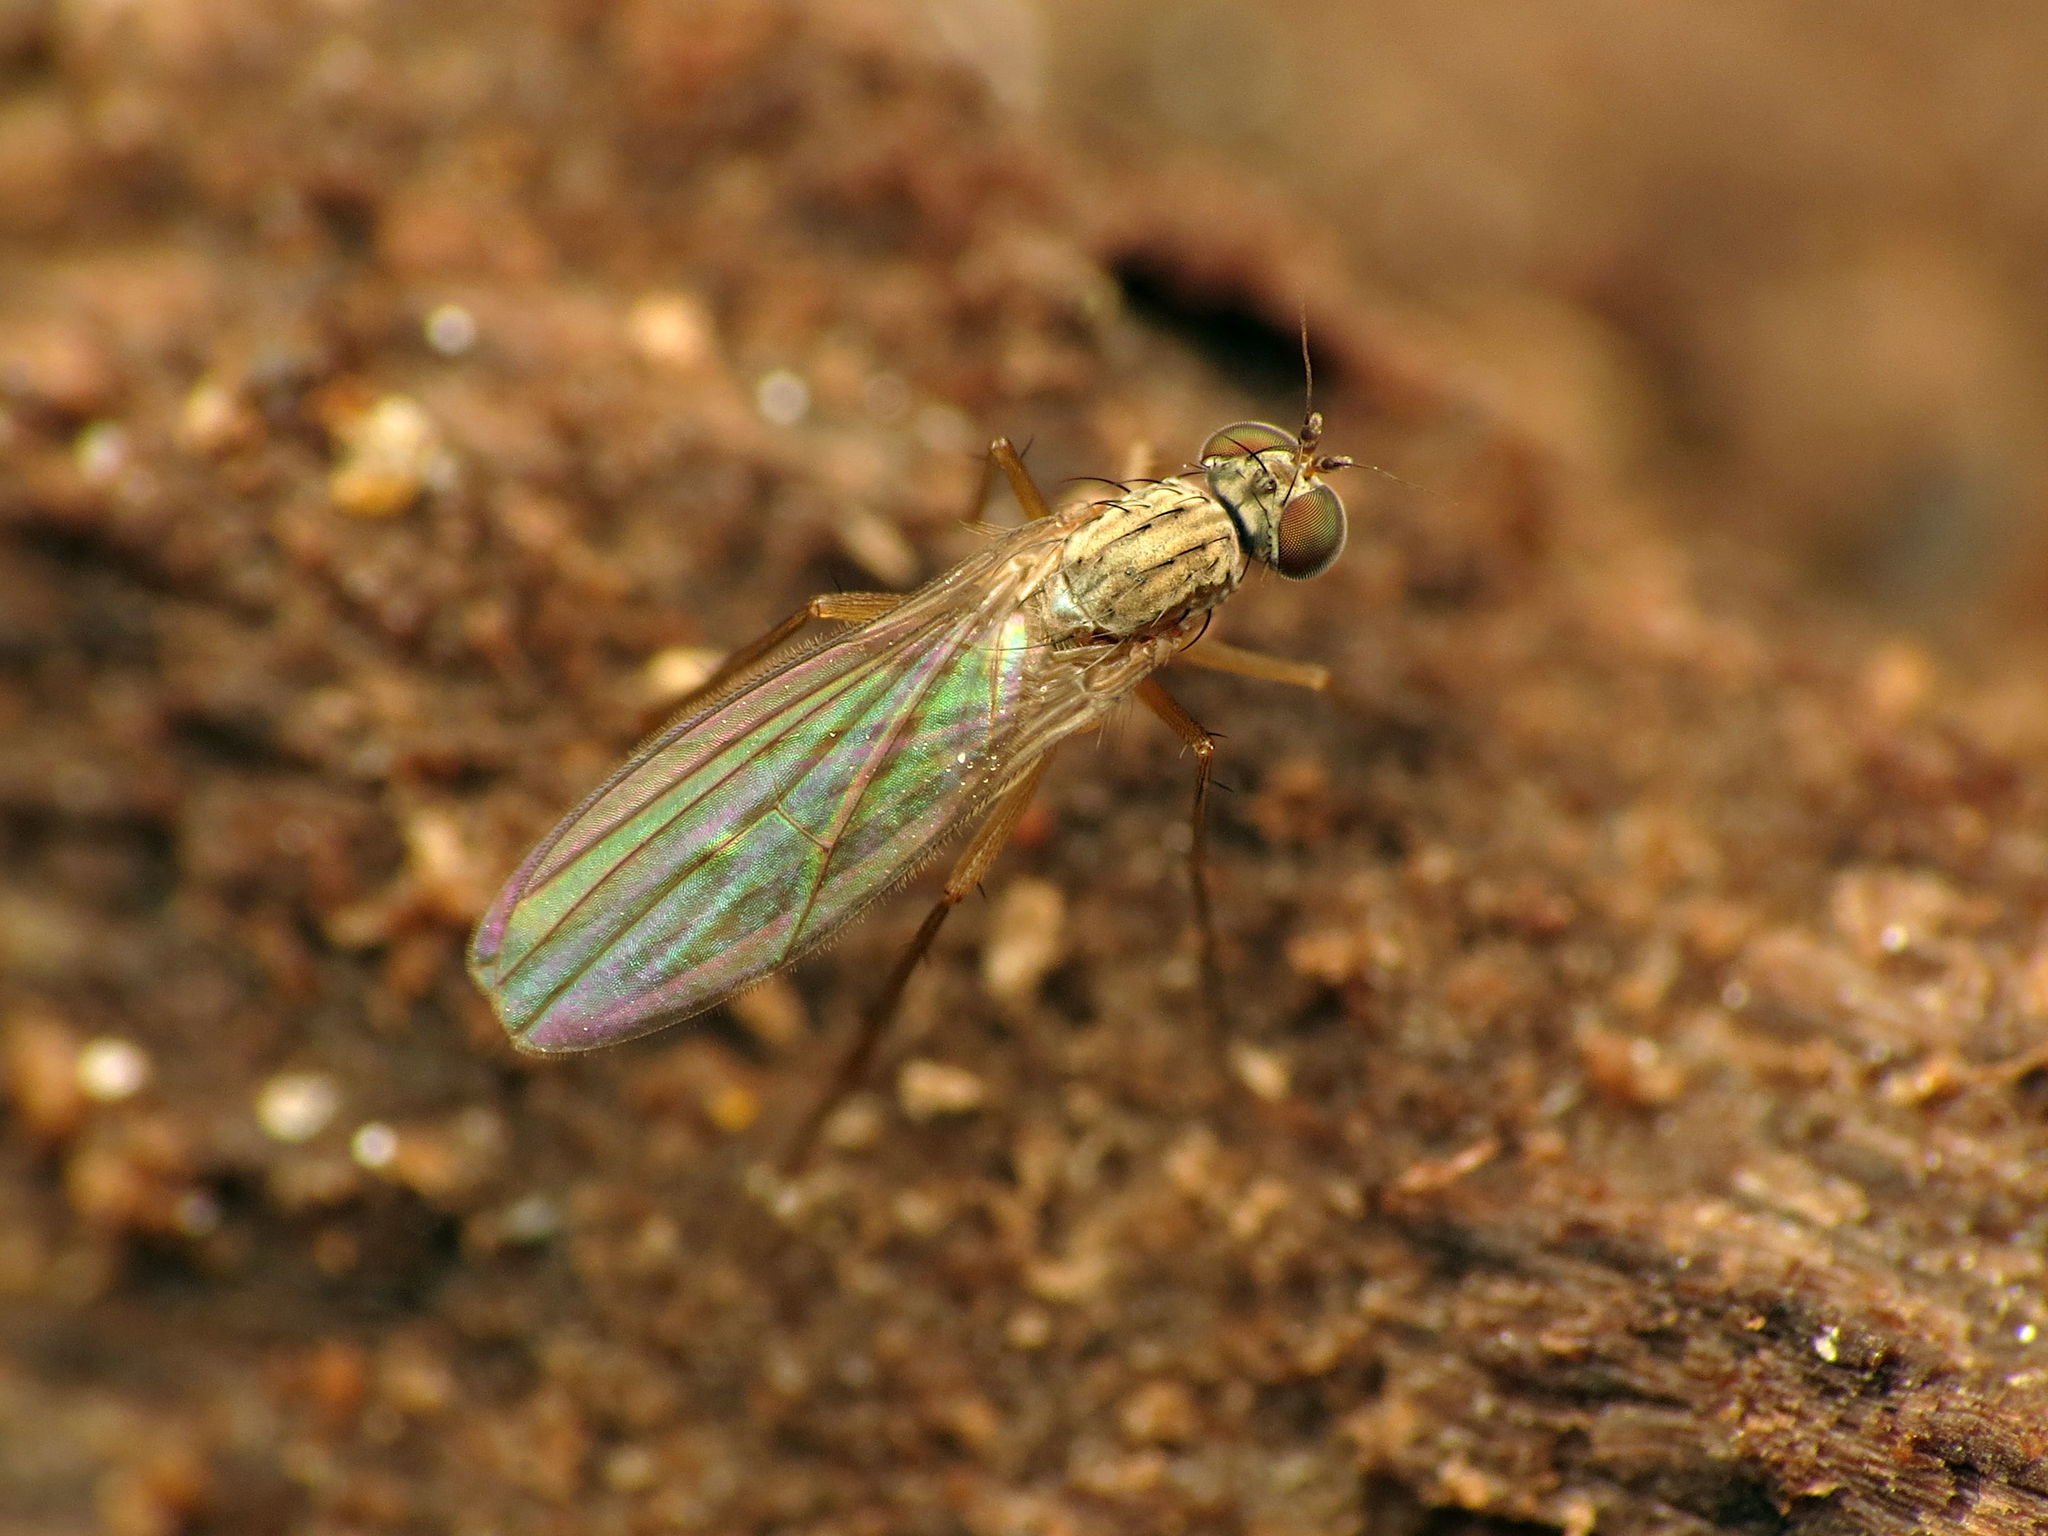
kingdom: Animalia
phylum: Arthropoda
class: Insecta
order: Diptera
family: Dolichopodidae
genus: Sympycnus
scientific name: Sympycnus lineatus
